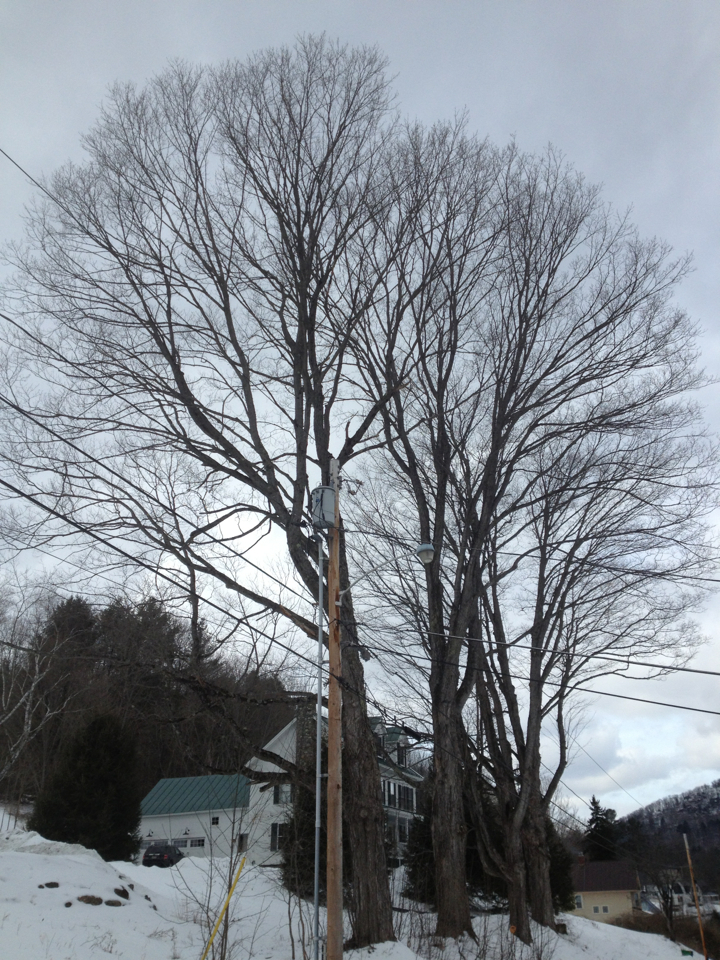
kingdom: Plantae
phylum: Tracheophyta
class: Magnoliopsida
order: Sapindales
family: Sapindaceae
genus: Acer
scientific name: Acer saccharum
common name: Sugar maple
